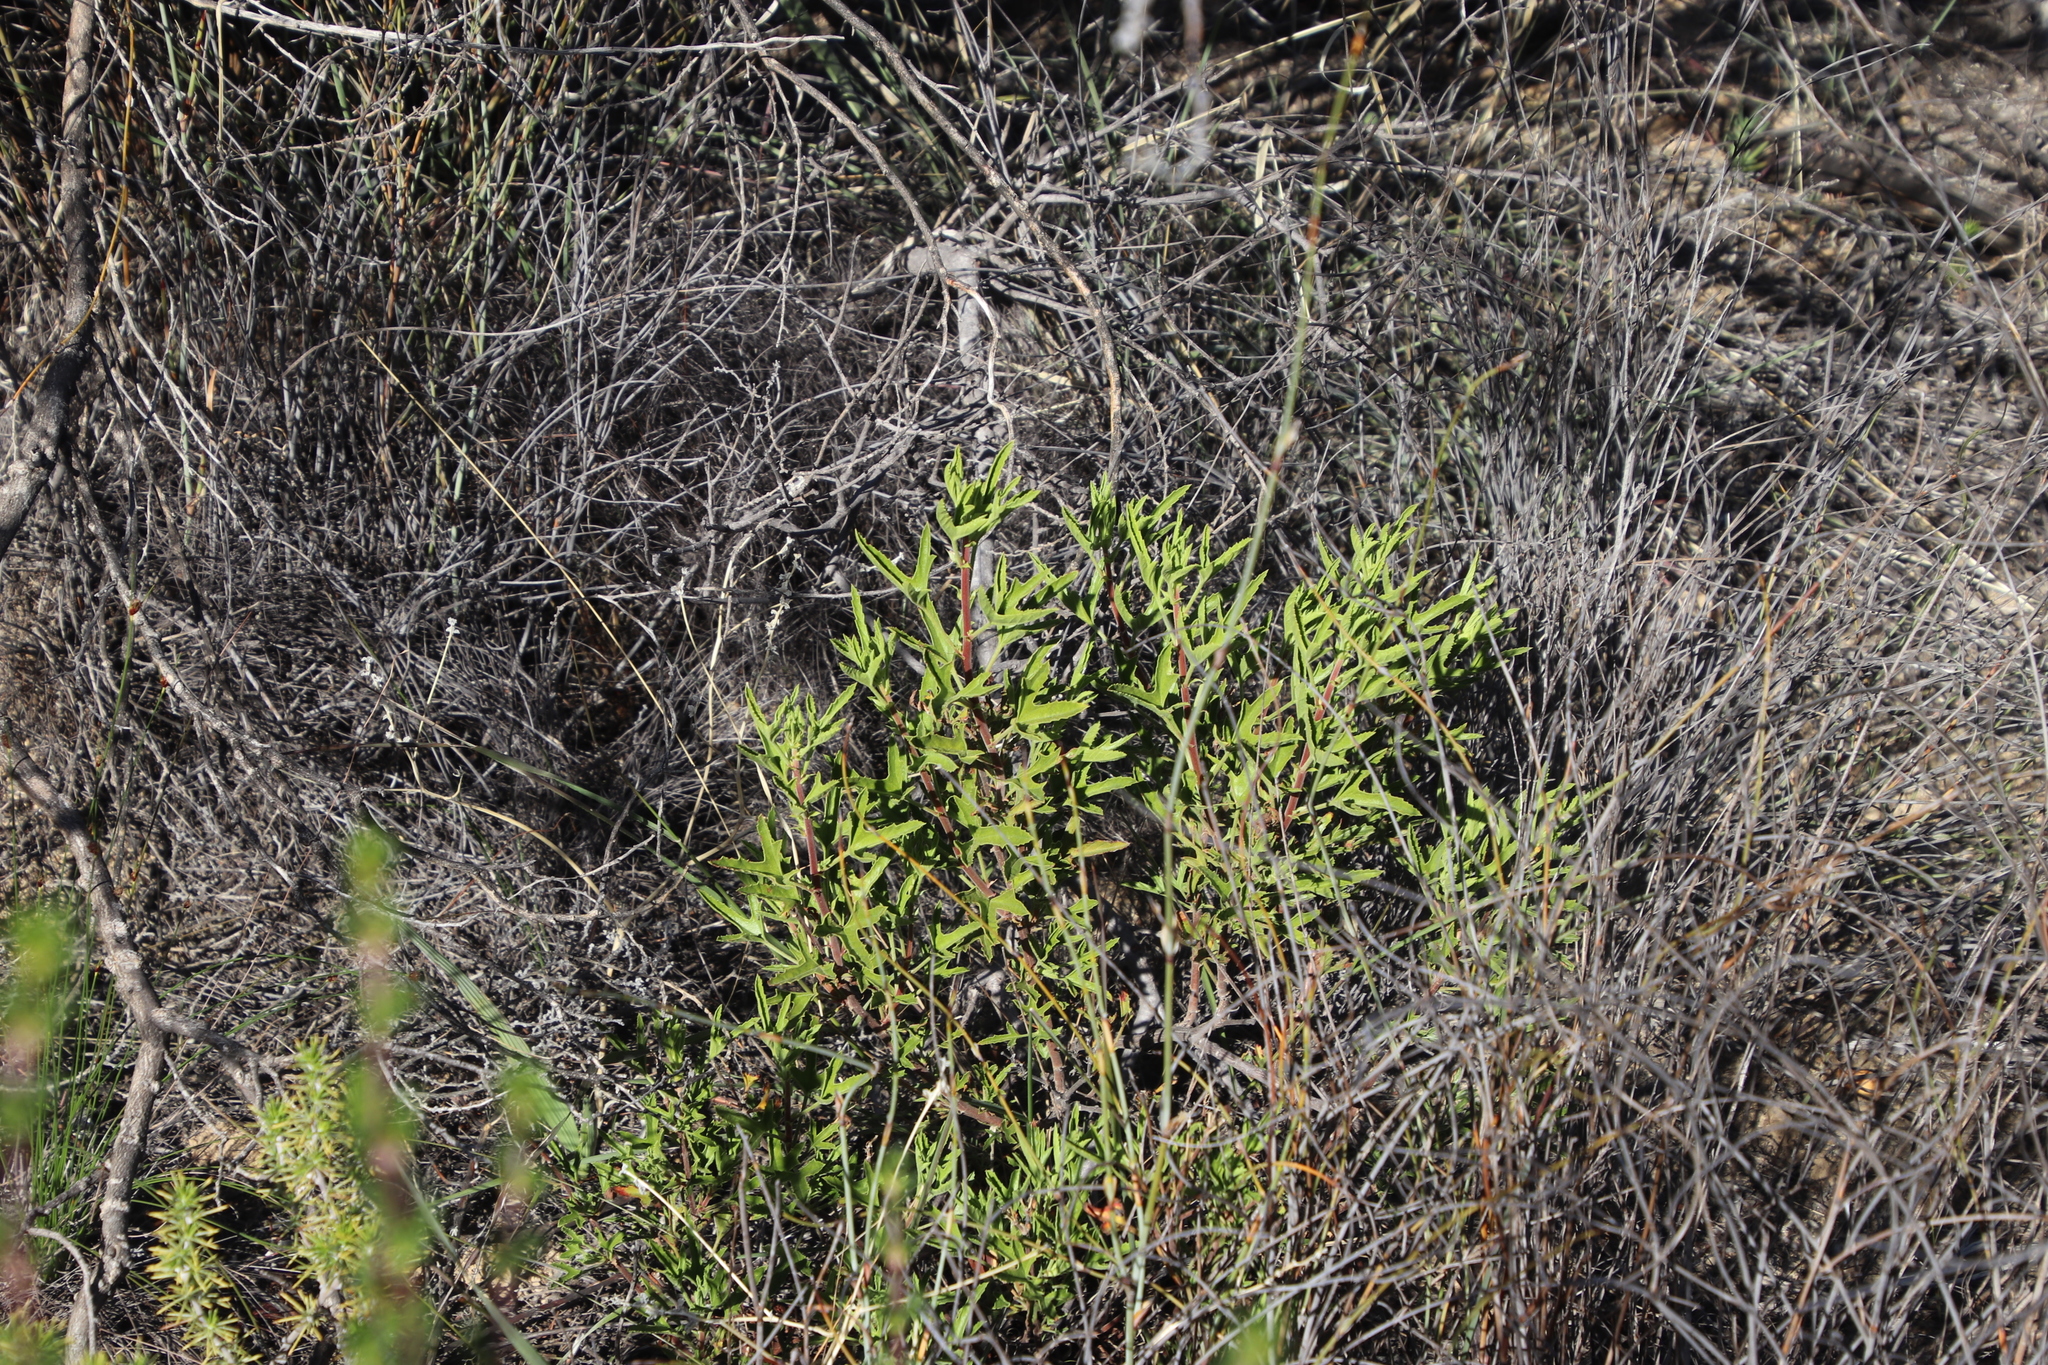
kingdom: Plantae
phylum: Tracheophyta
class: Magnoliopsida
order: Geraniales
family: Geraniaceae
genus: Pelargonium
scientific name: Pelargonium scabrum
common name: Apricot geranium
